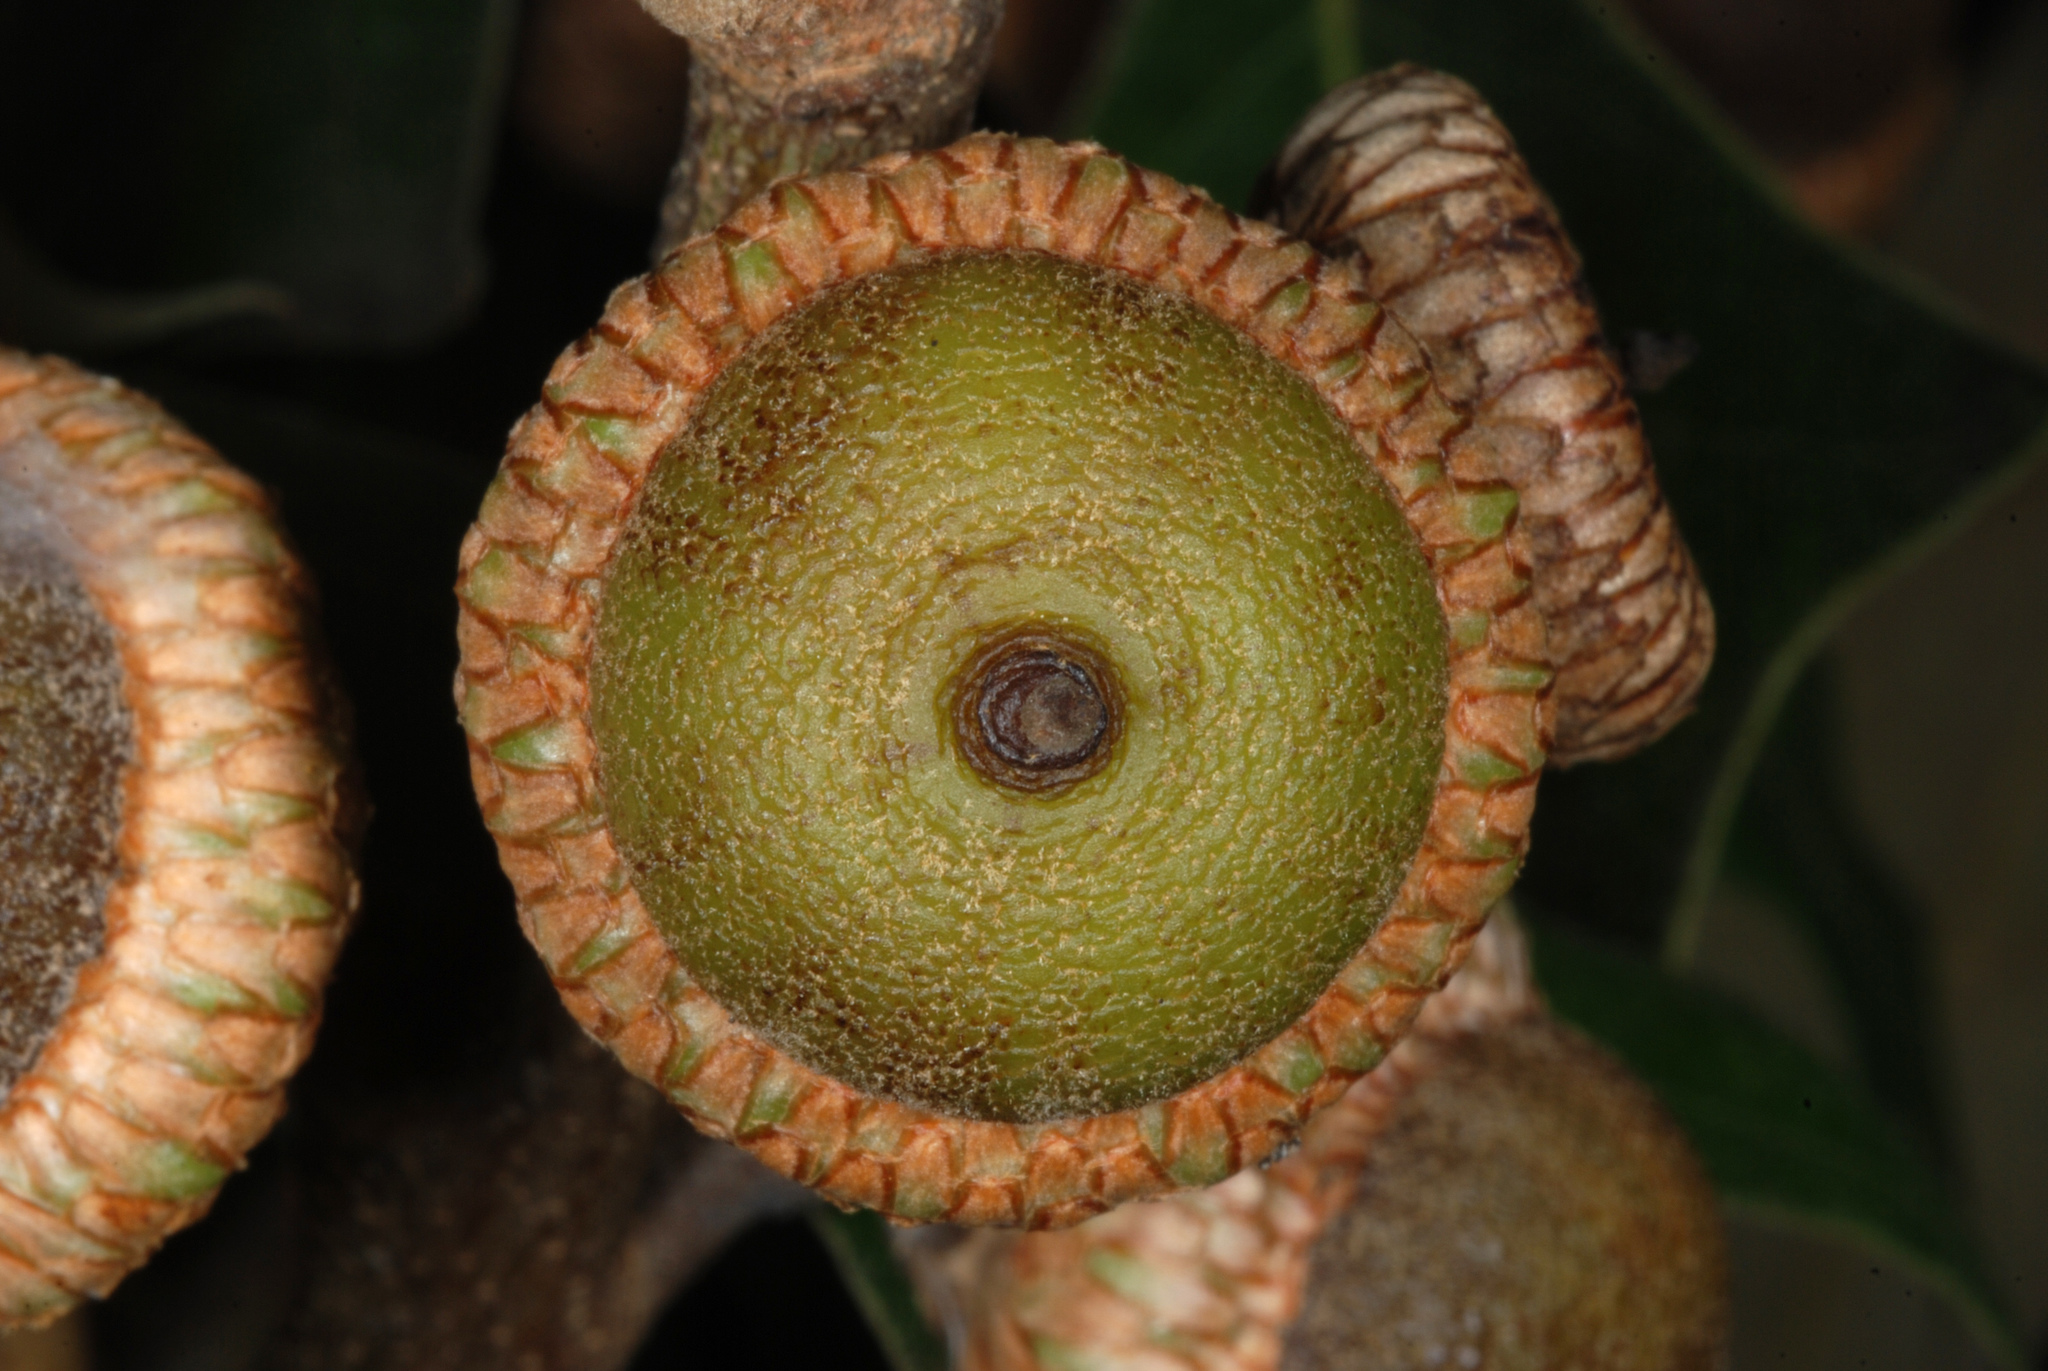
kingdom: Plantae
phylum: Tracheophyta
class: Magnoliopsida
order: Fagales
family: Fagaceae
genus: Quercus
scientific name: Quercus falcata
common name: Southern red oak
